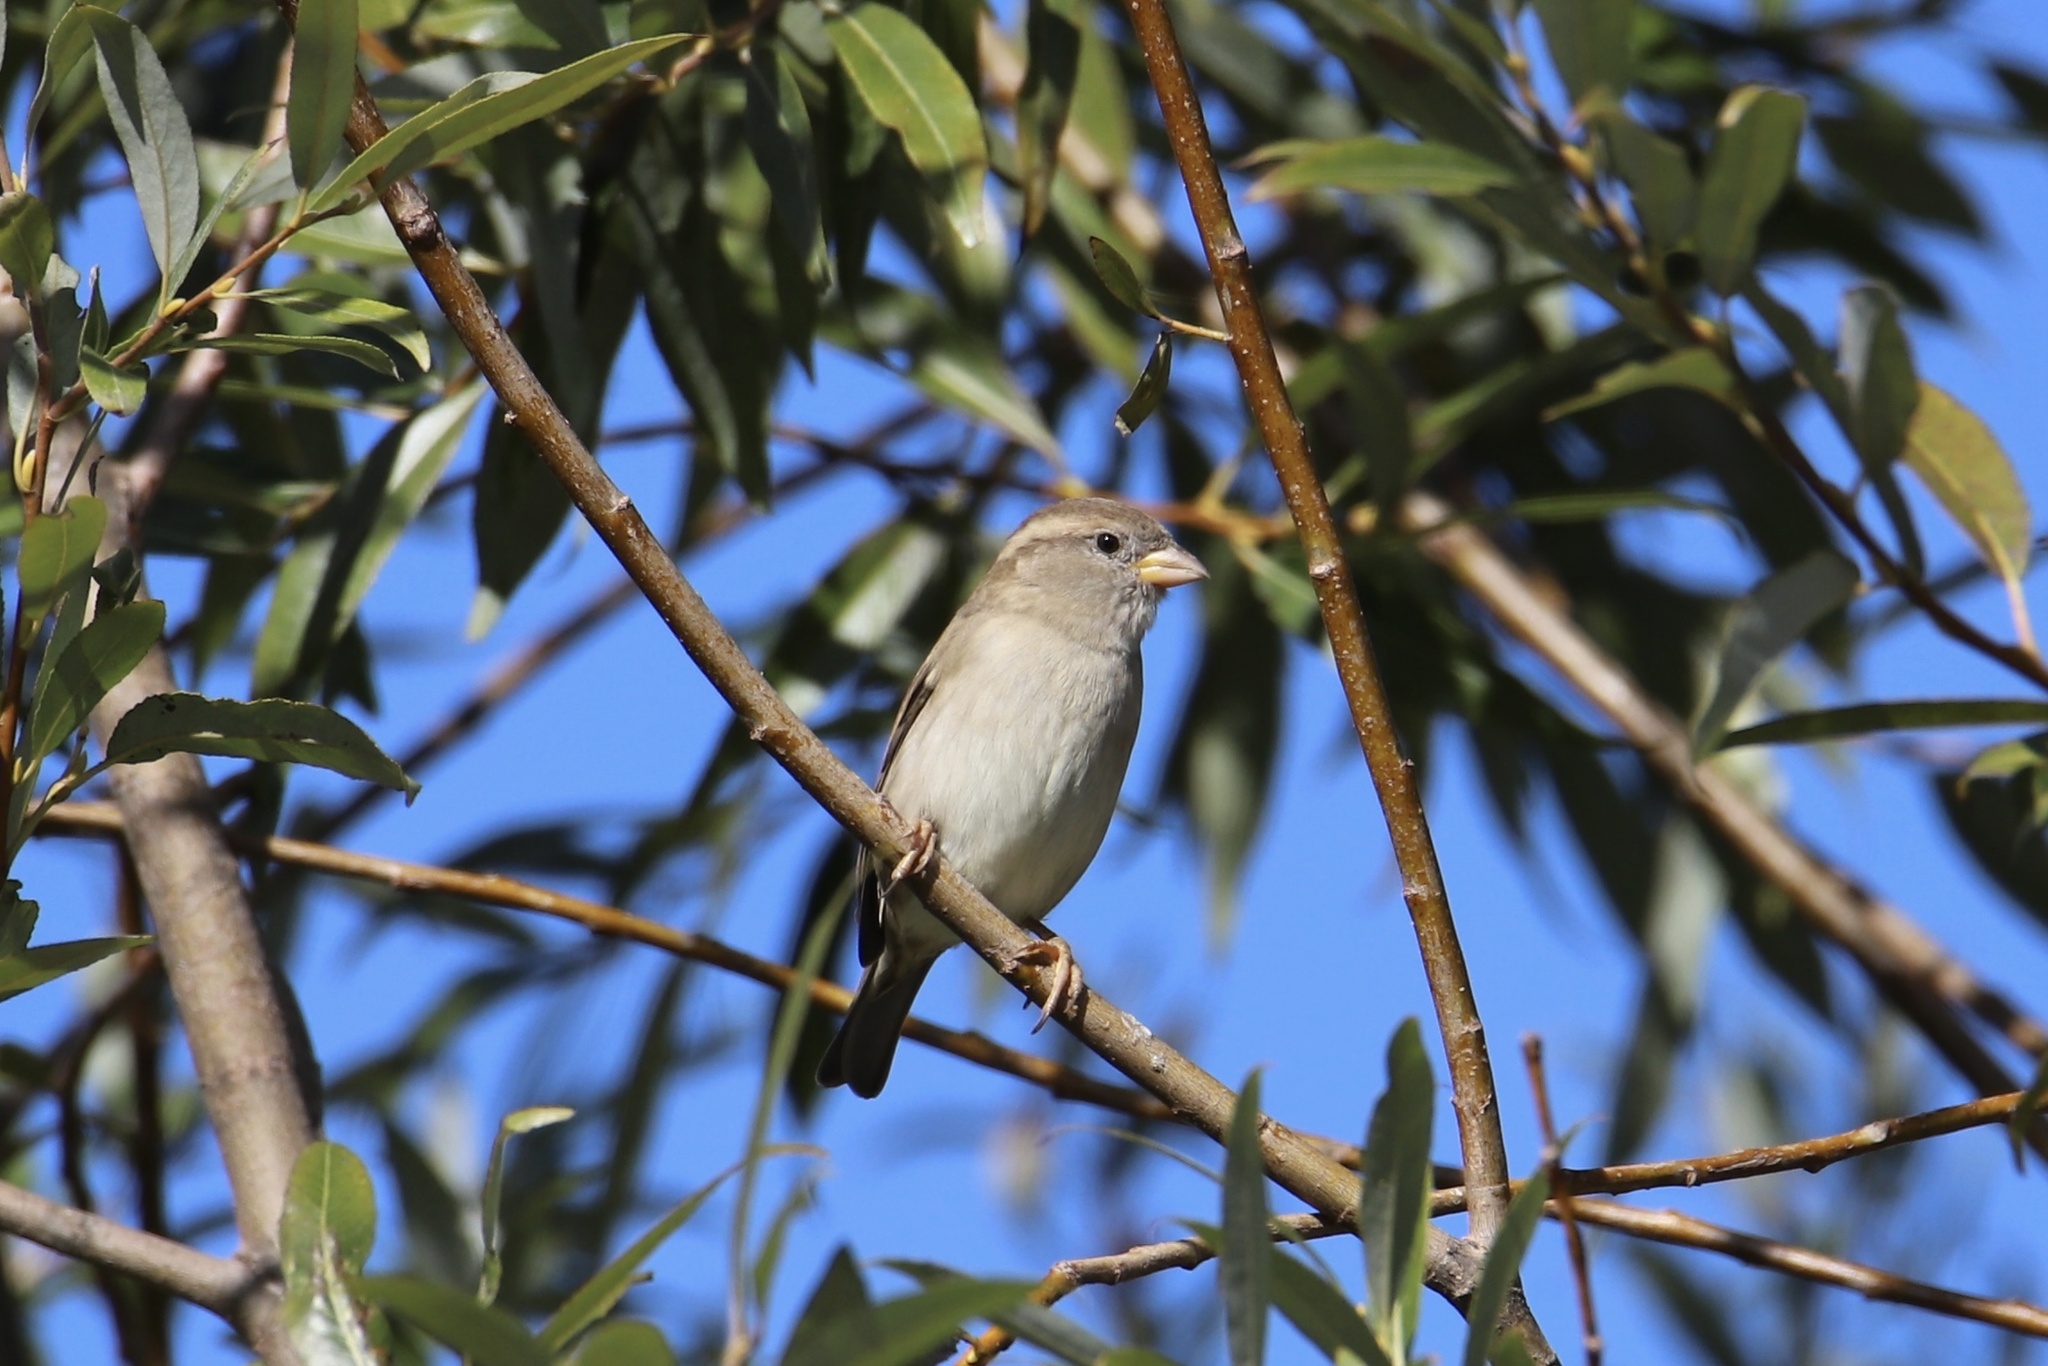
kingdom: Animalia
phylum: Chordata
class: Aves
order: Passeriformes
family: Passeridae
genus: Passer
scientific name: Passer domesticus
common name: House sparrow
